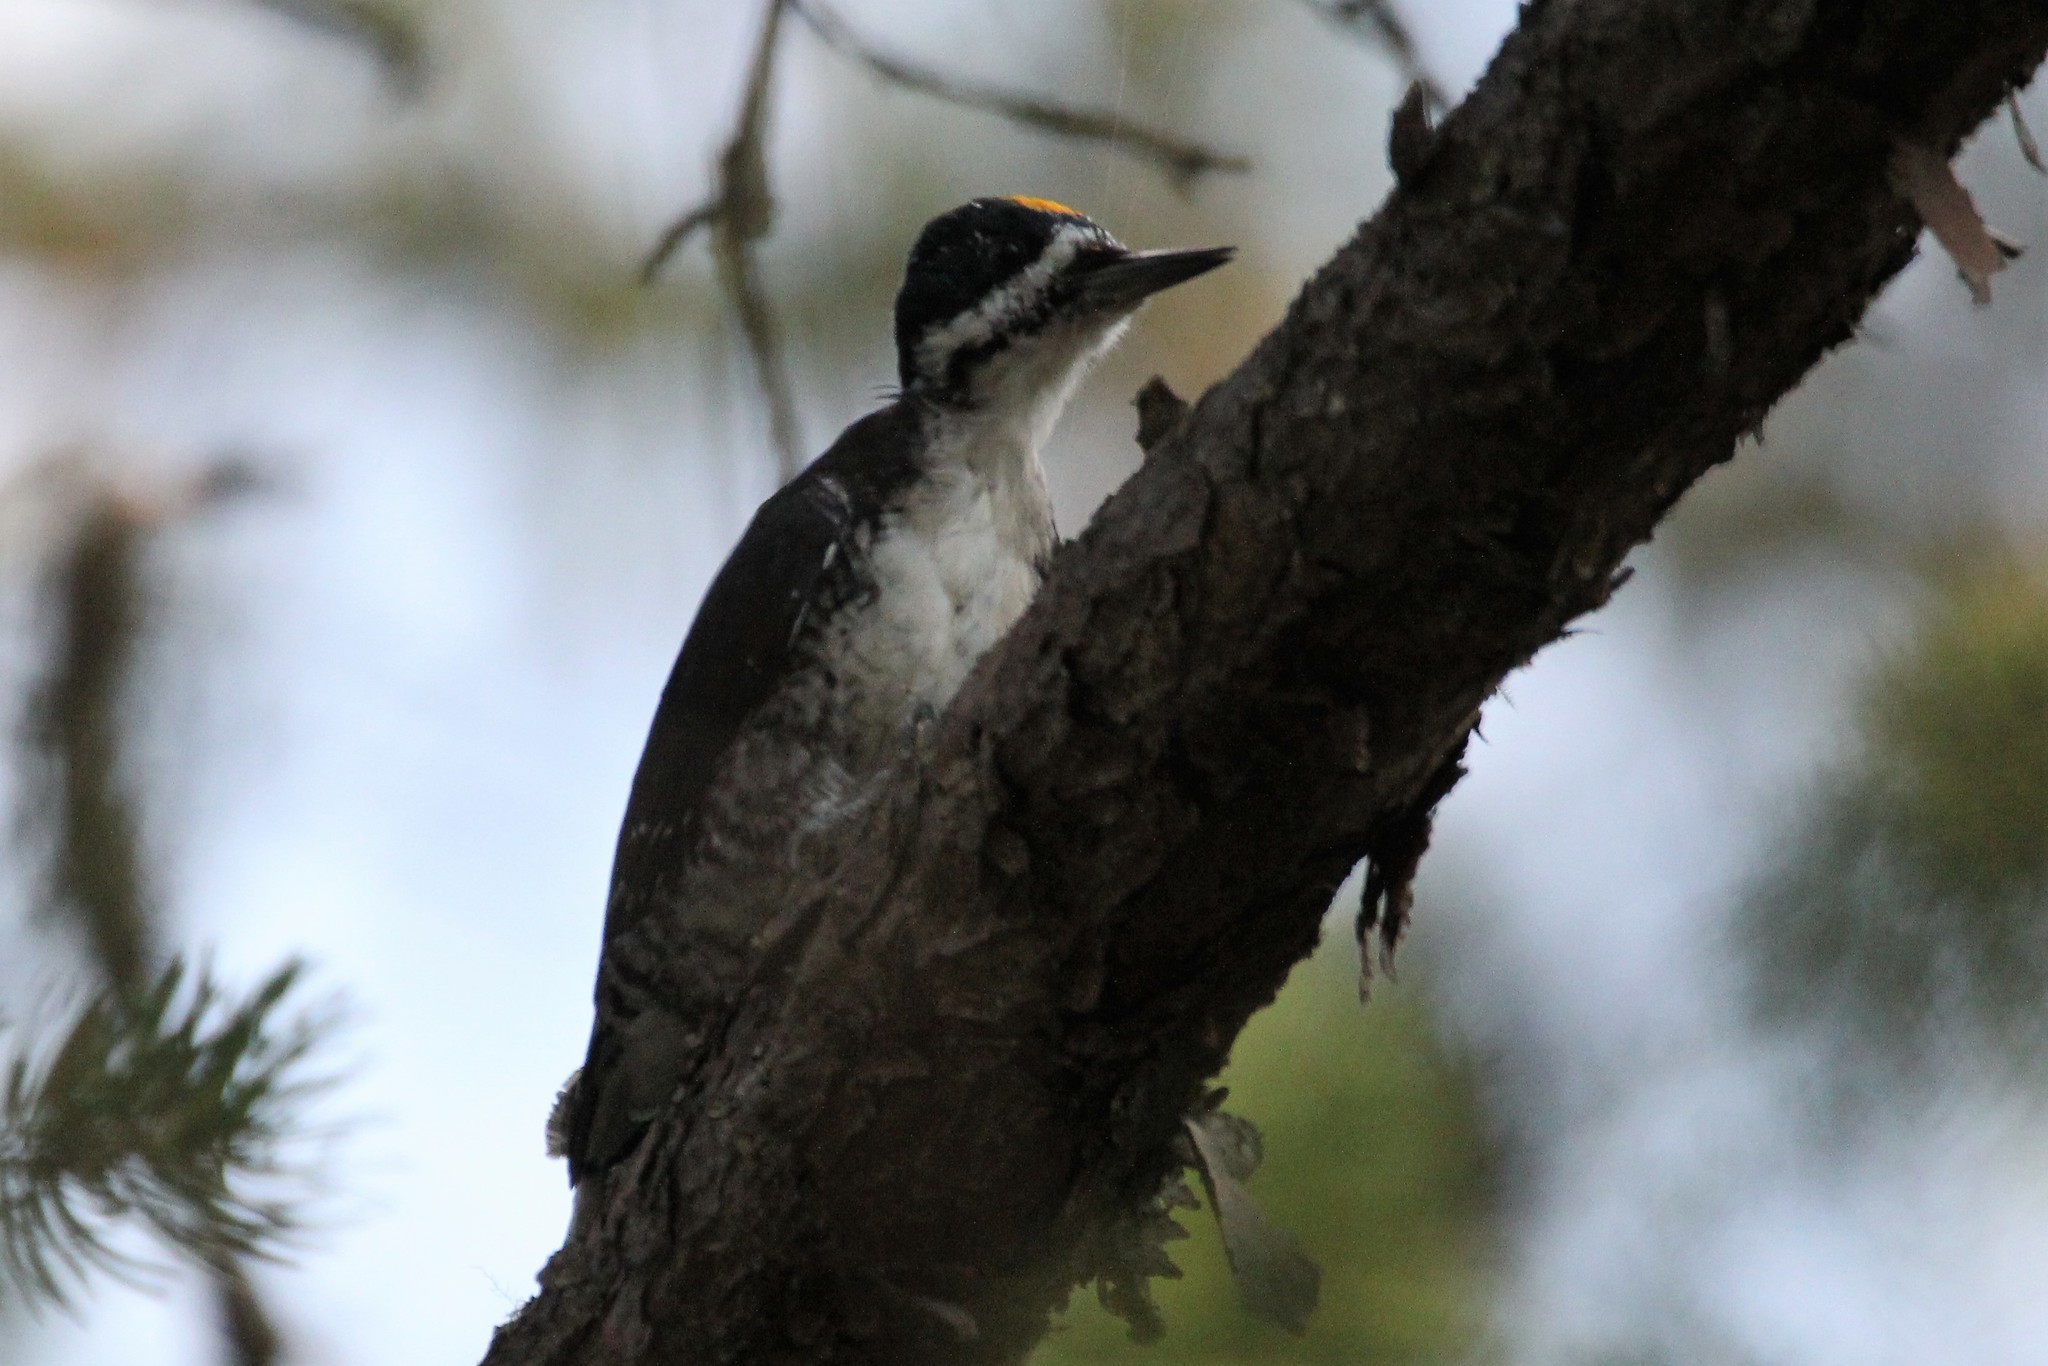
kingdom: Animalia
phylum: Chordata
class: Aves
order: Piciformes
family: Picidae
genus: Picoides
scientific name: Picoides arcticus
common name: Black-backed woodpecker
